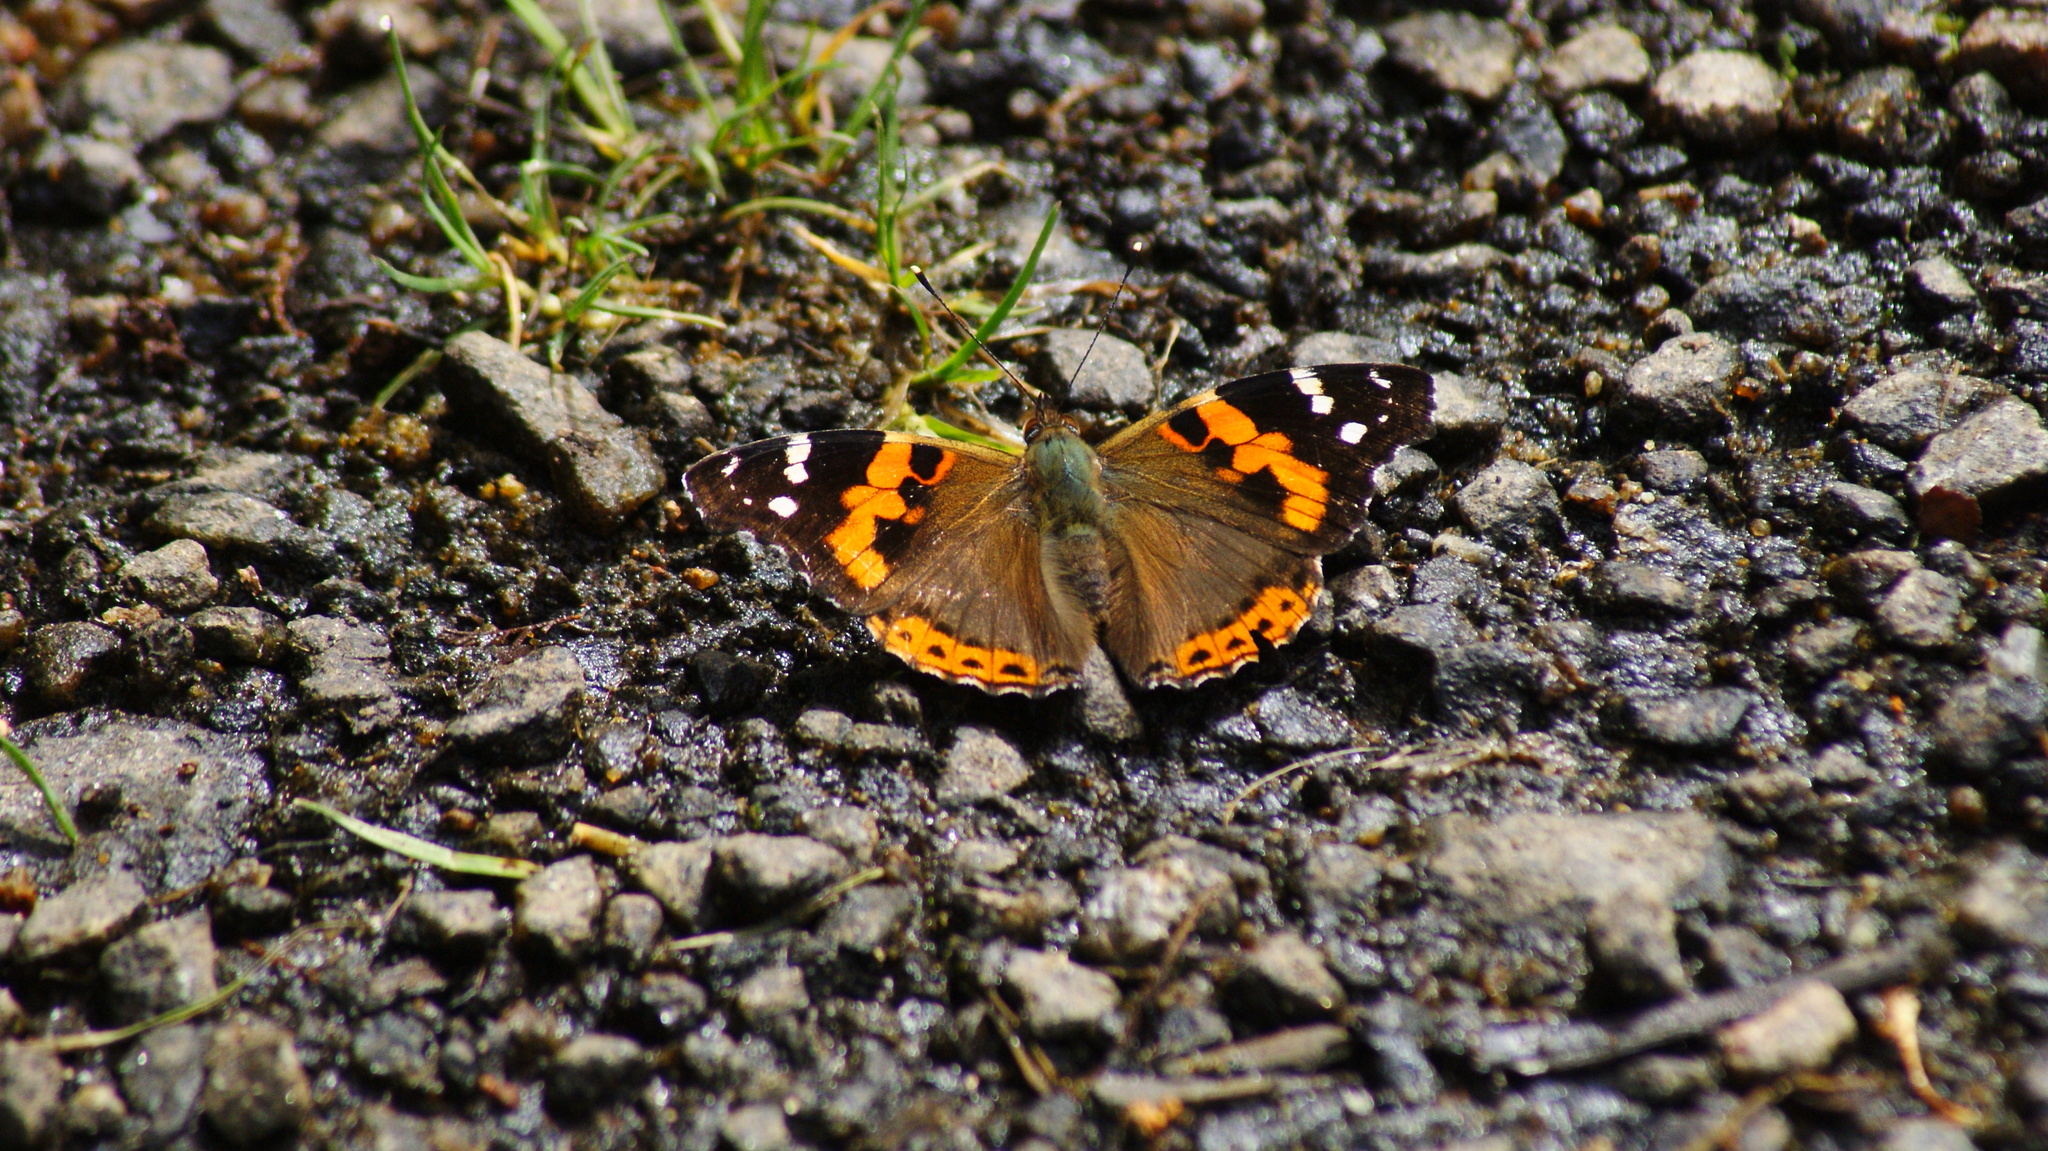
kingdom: Animalia
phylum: Arthropoda
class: Insecta
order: Lepidoptera
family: Nymphalidae
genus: Vanessa
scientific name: Vanessa indica
